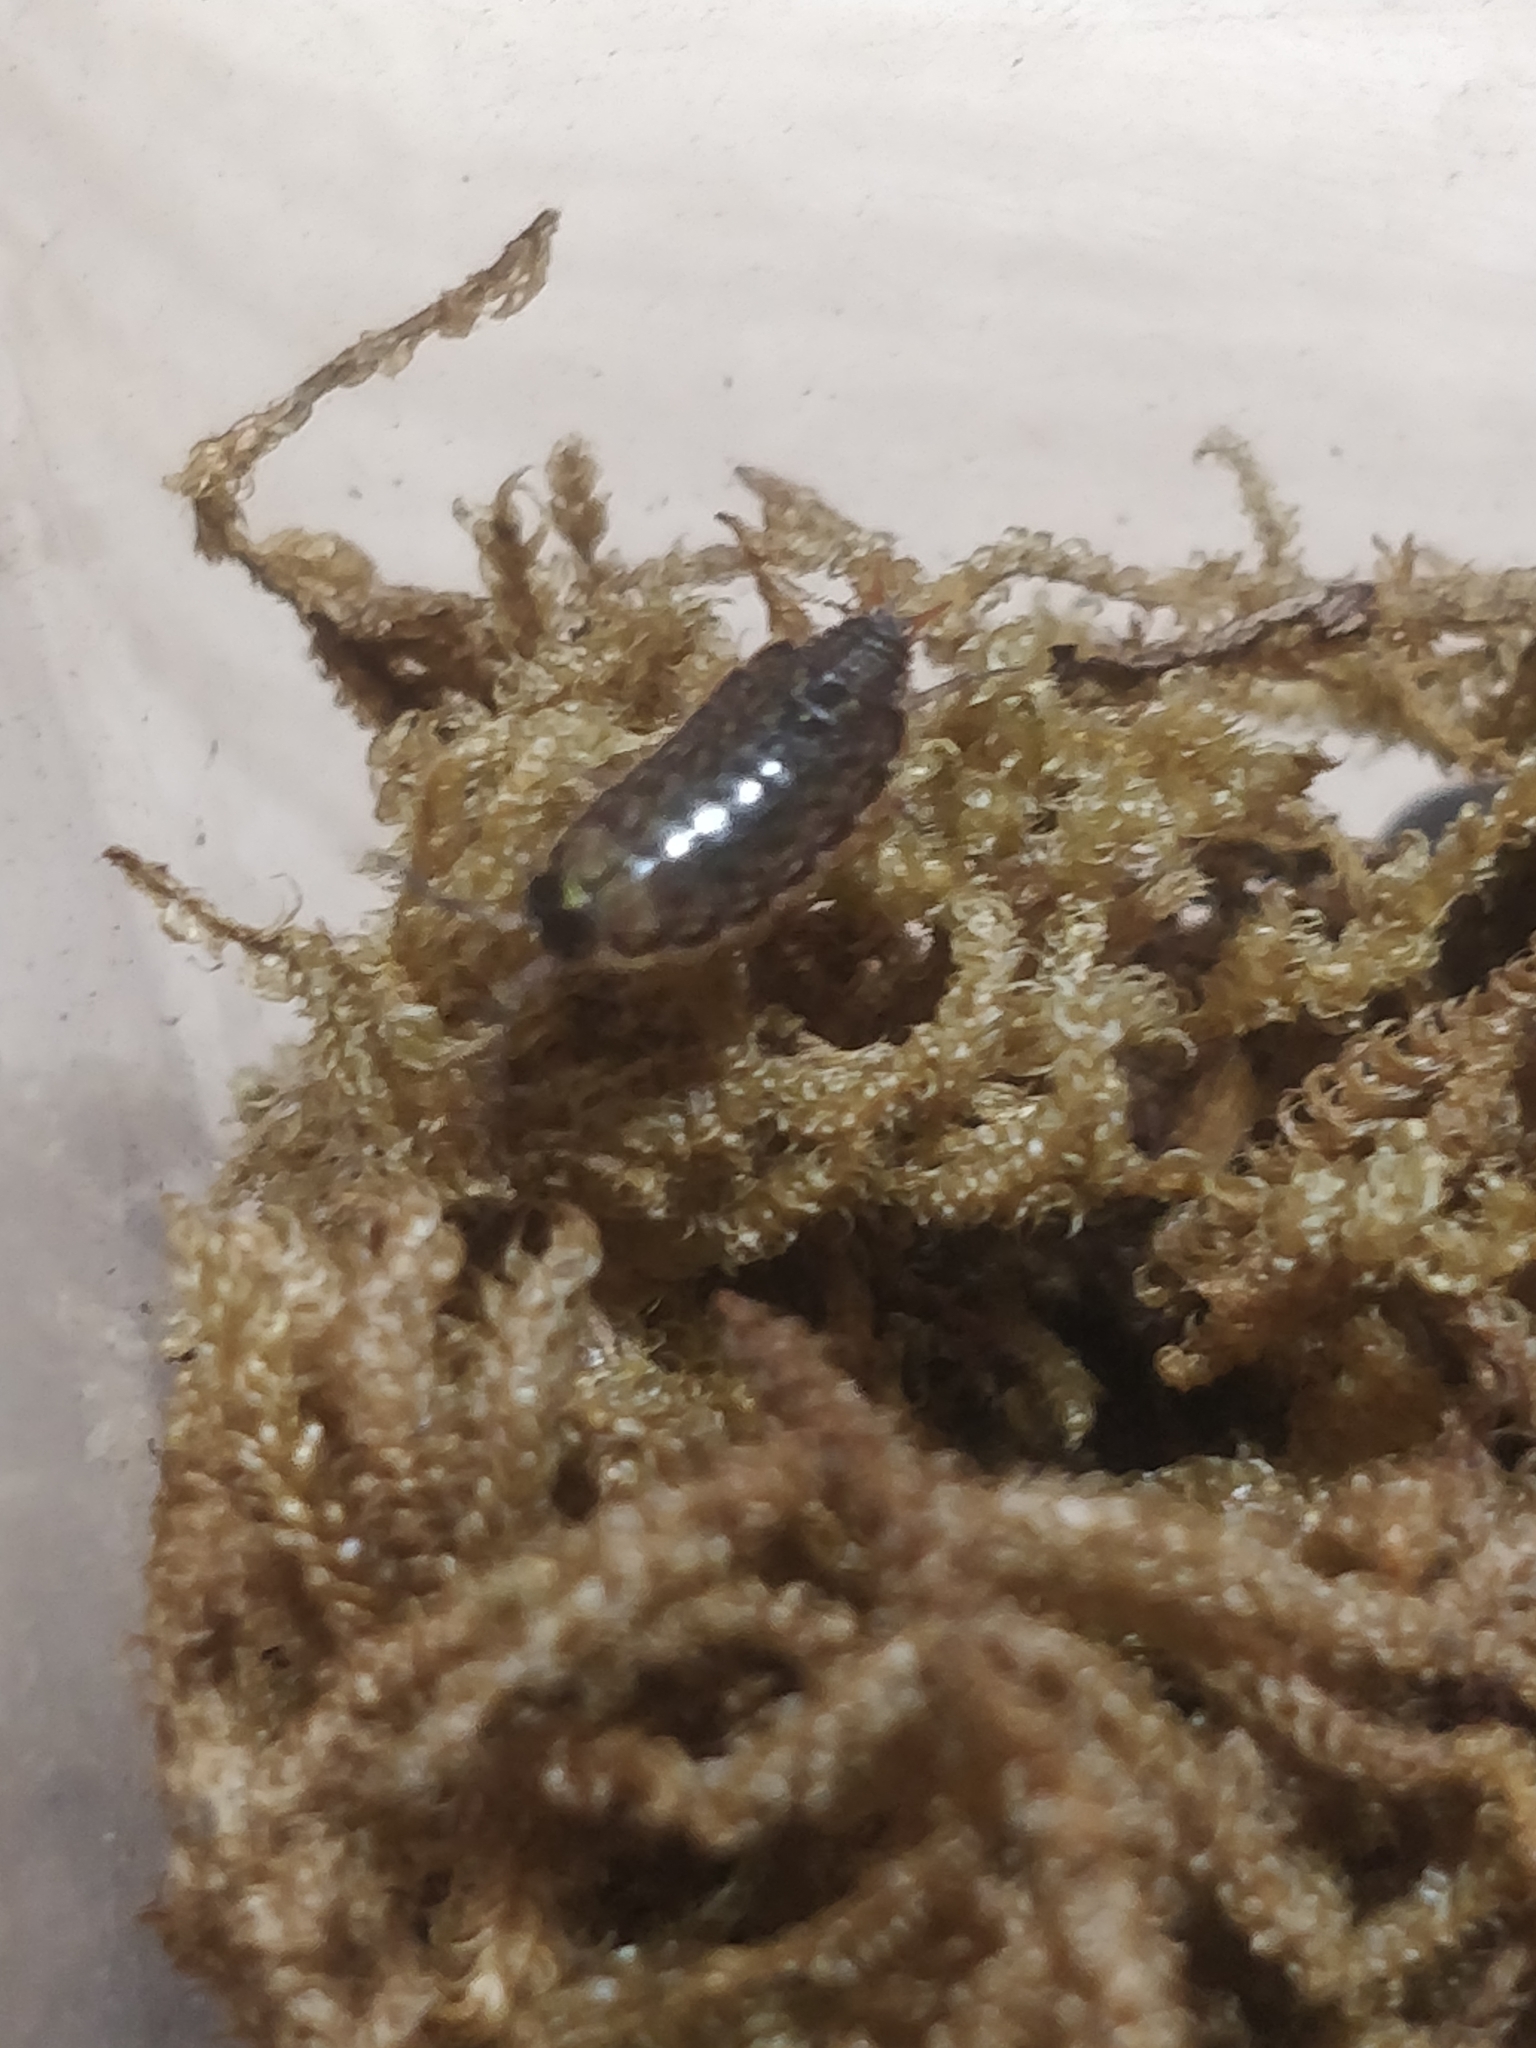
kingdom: Animalia
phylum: Arthropoda
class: Malacostraca
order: Isopoda
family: Philosciidae
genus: Philoscia
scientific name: Philoscia muscorum
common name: Common striped woodlouse
